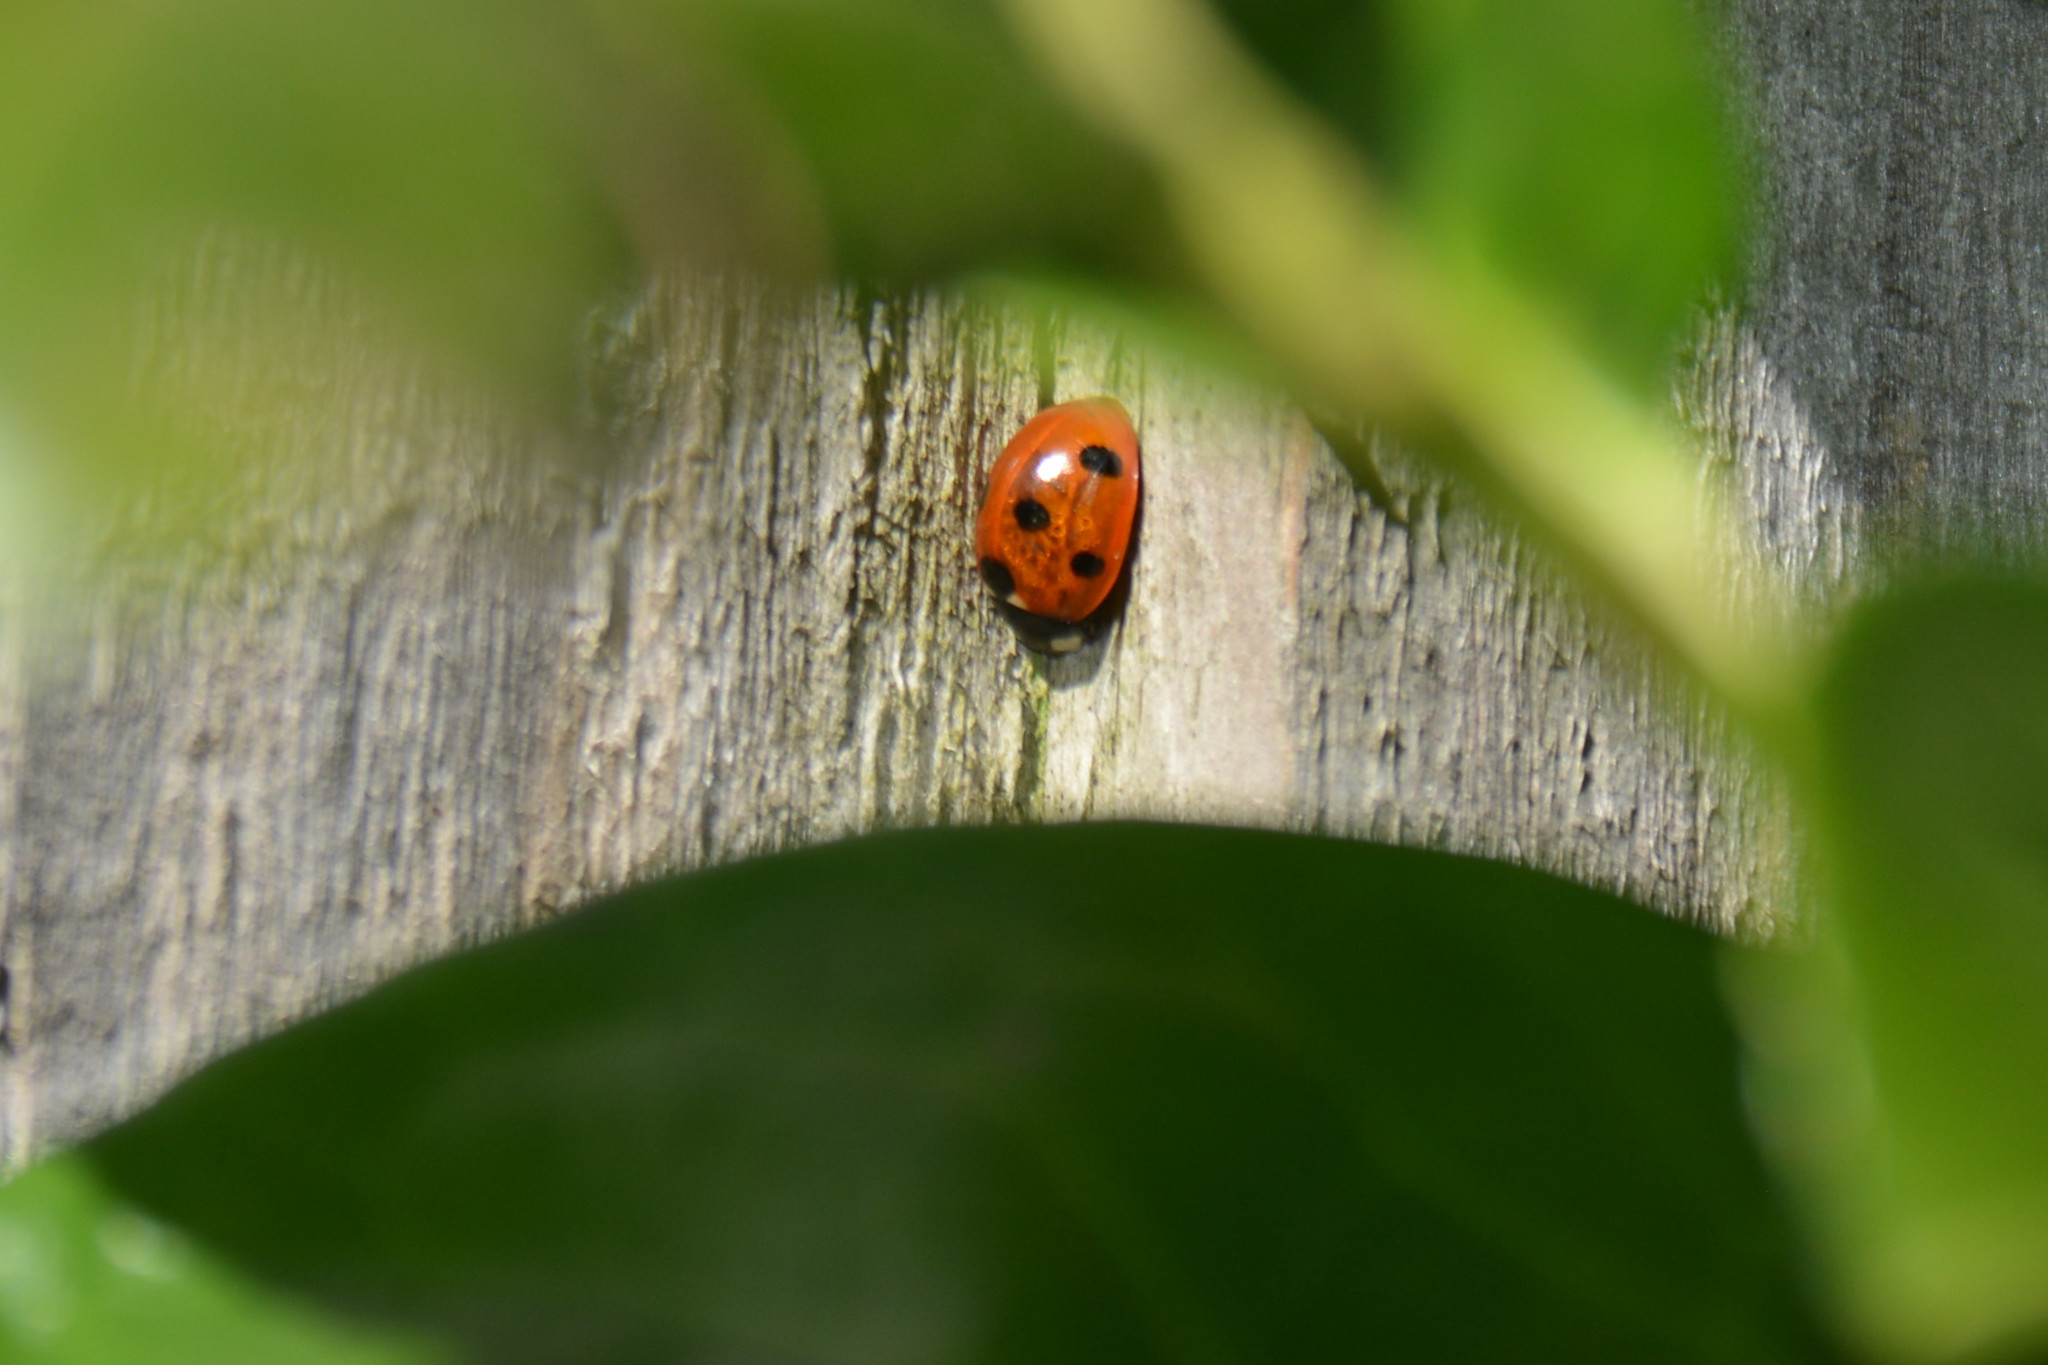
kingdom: Animalia
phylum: Arthropoda
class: Insecta
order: Coleoptera
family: Coccinellidae
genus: Coccinella
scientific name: Coccinella septempunctata
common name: Sevenspotted lady beetle
